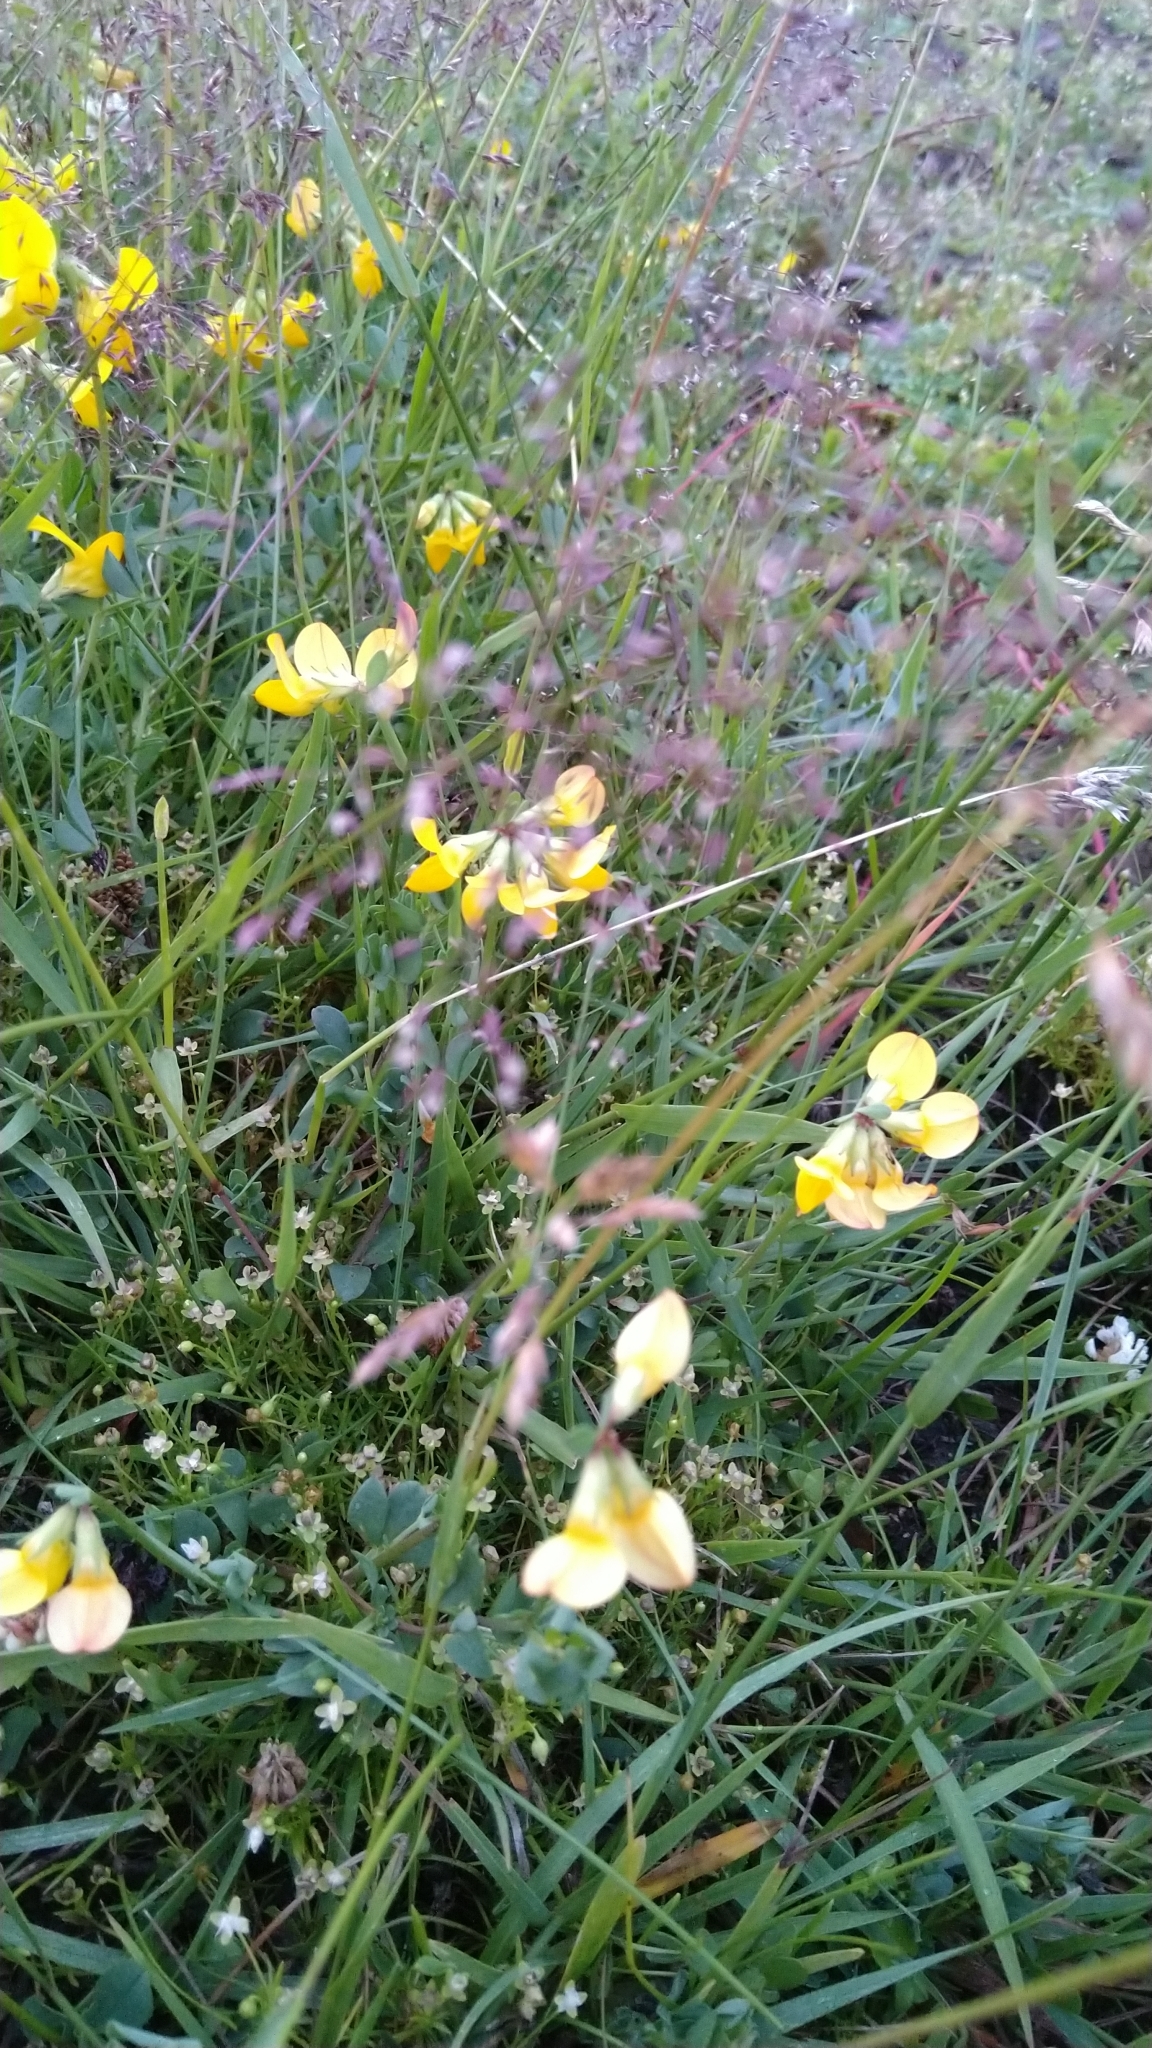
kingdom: Plantae
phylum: Tracheophyta
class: Magnoliopsida
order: Fabales
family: Fabaceae
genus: Lotus
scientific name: Lotus corniculatus
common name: Common bird's-foot-trefoil
